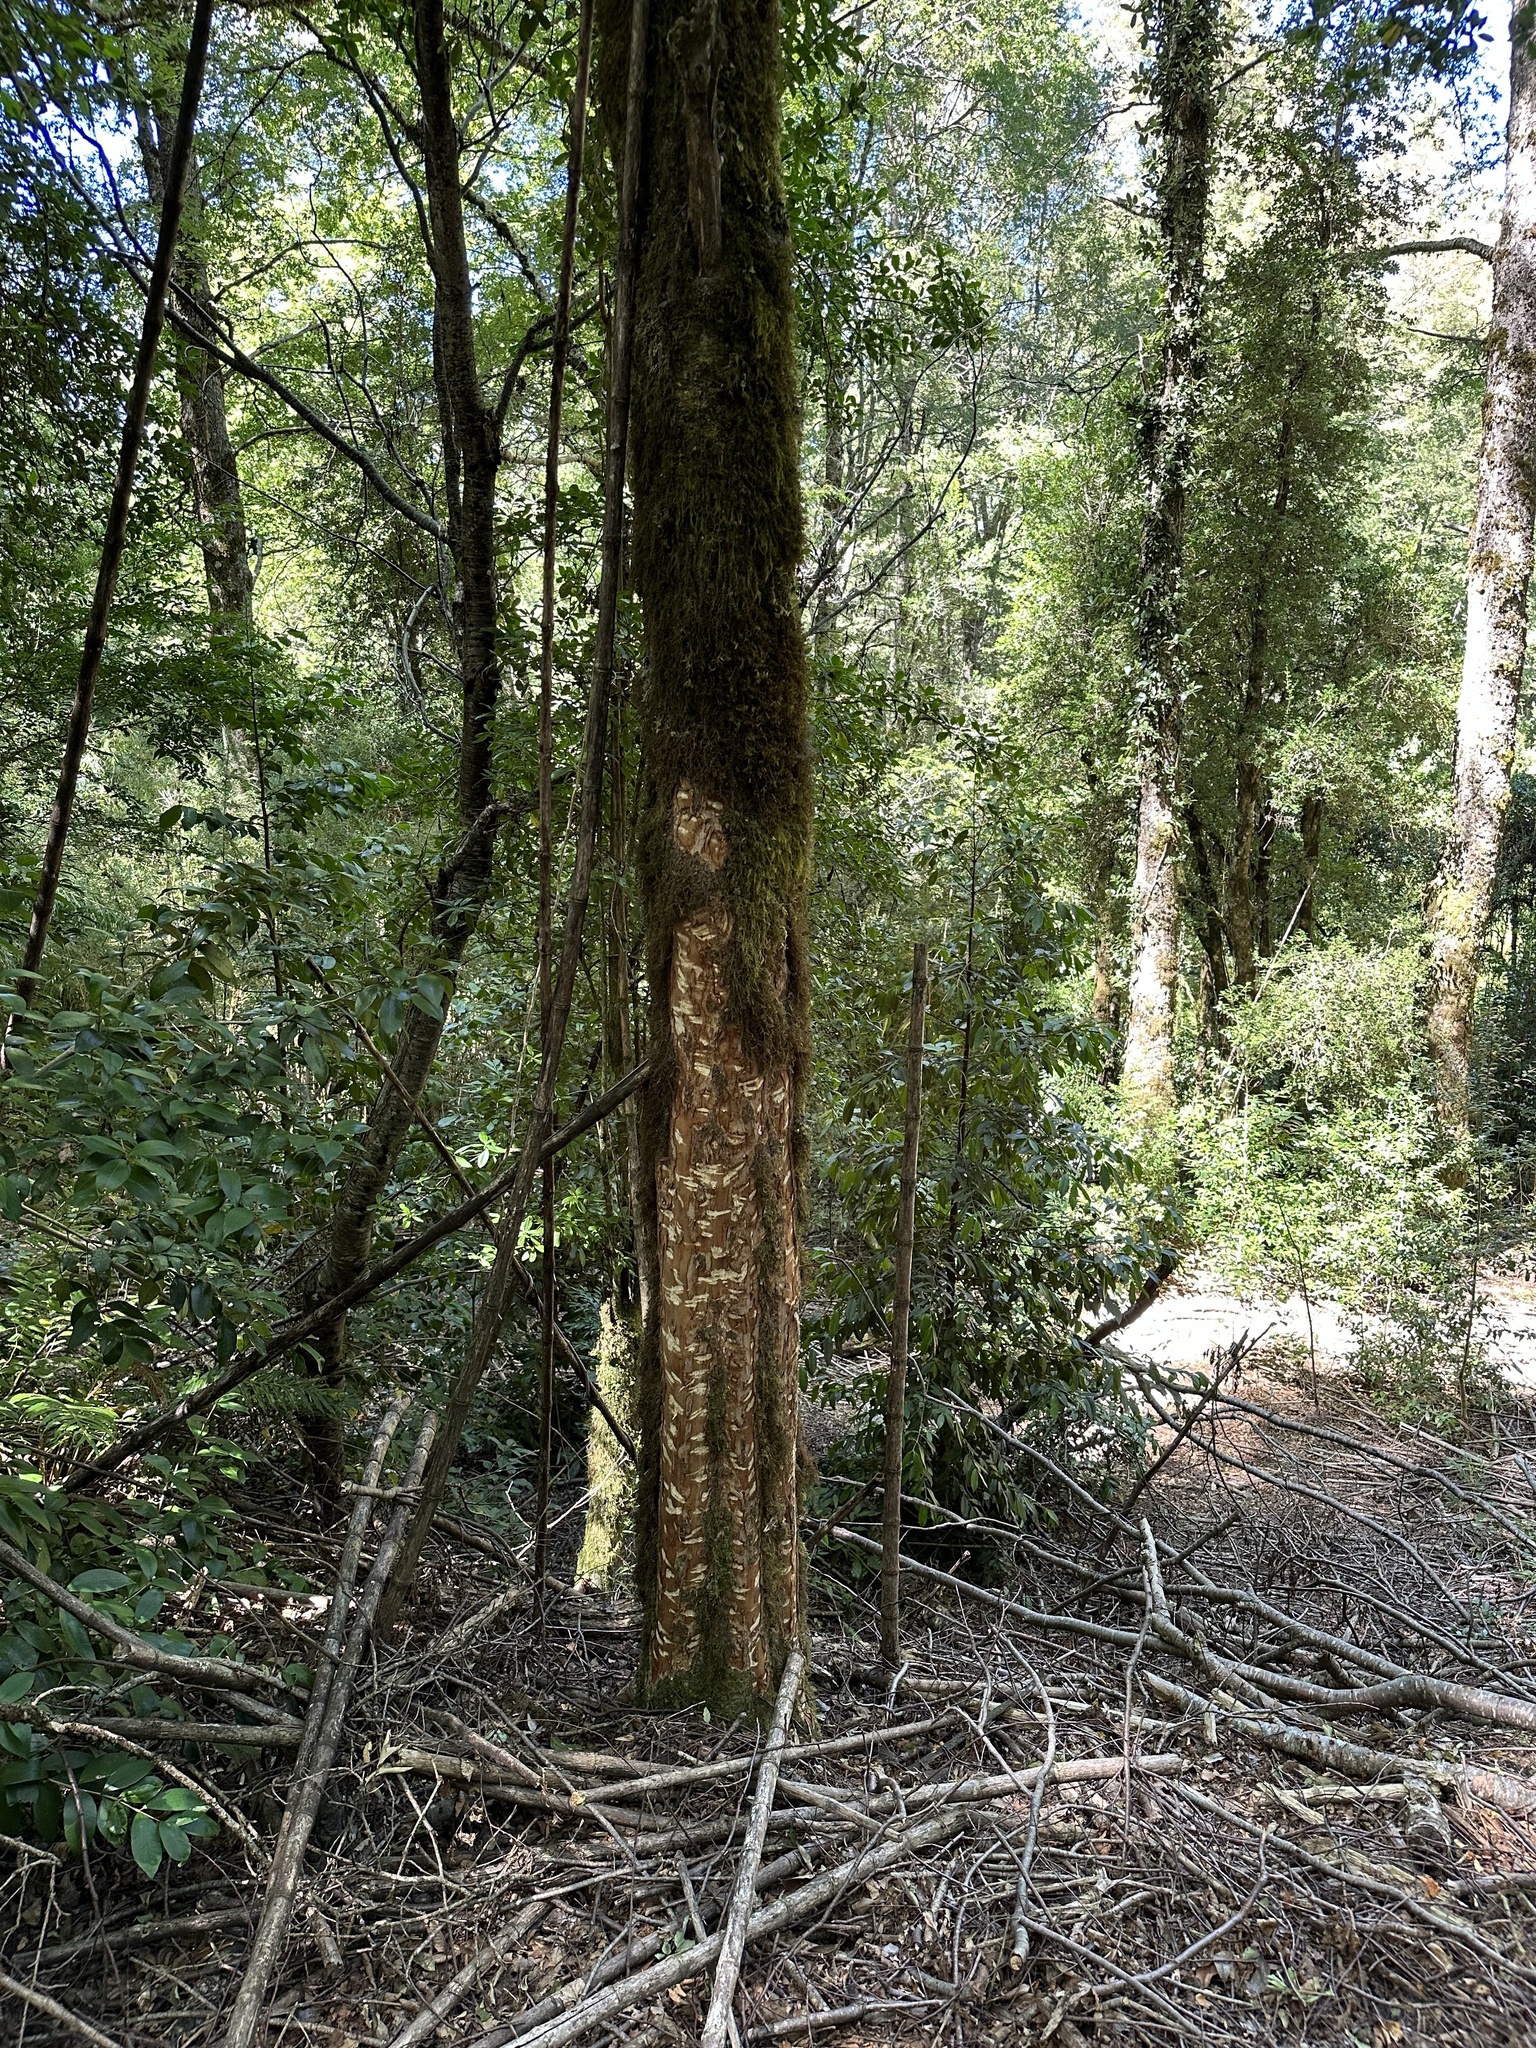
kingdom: Plantae
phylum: Tracheophyta
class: Magnoliopsida
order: Asterales
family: Asteraceae
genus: Archidasyphyllum
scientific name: Archidasyphyllum diacanthoides
